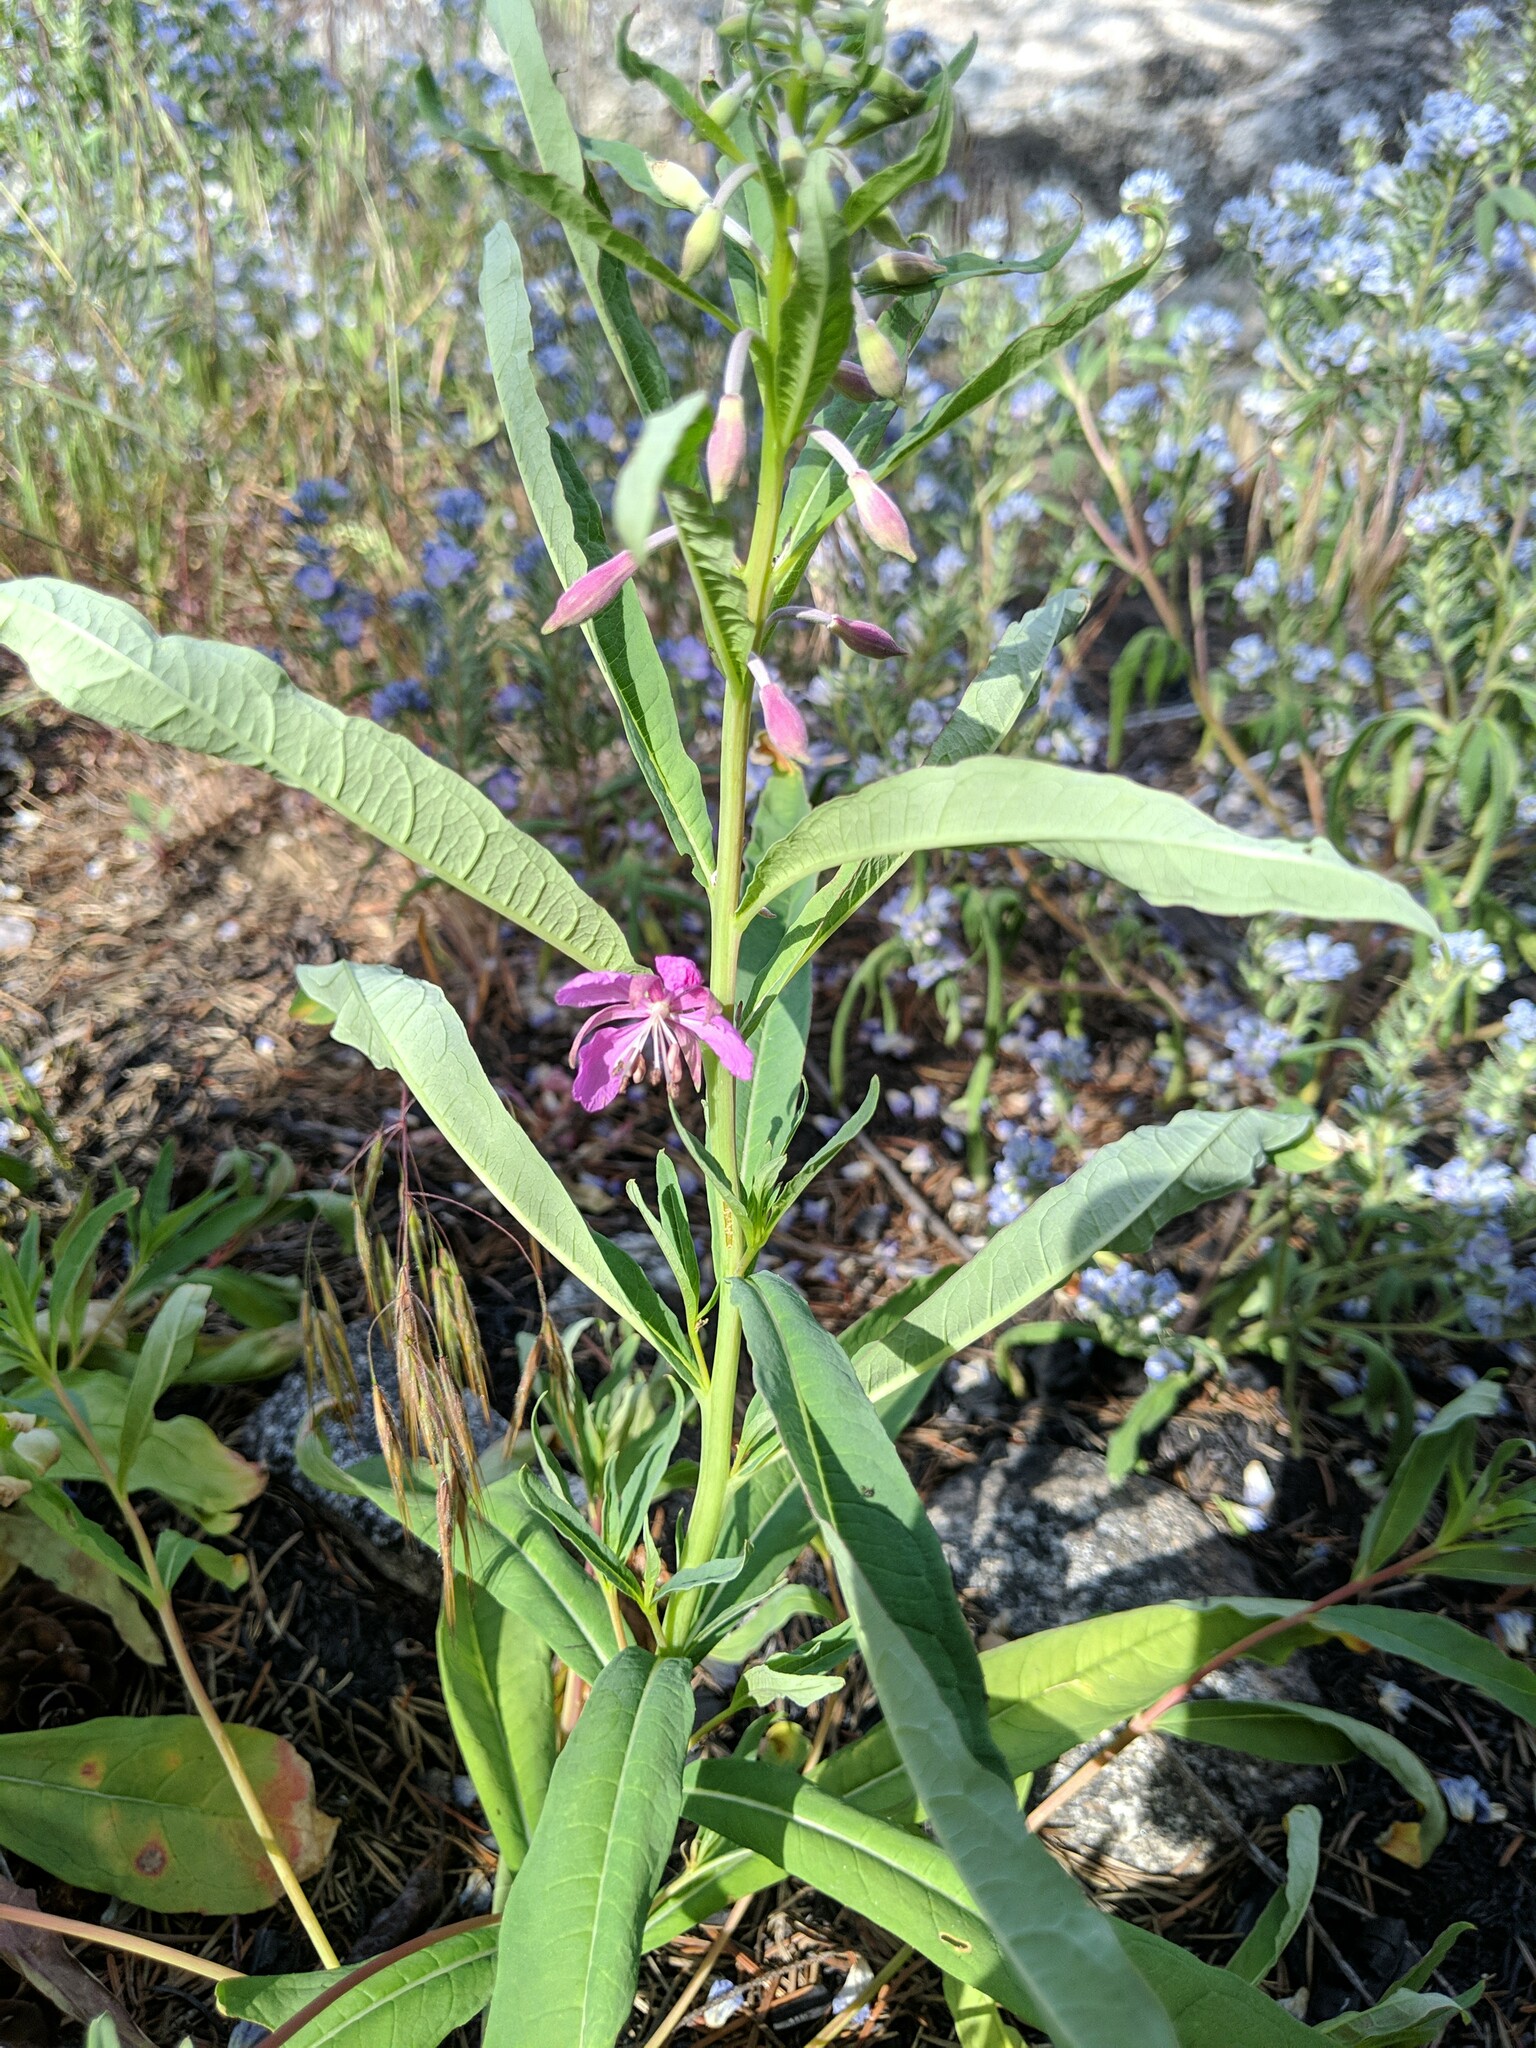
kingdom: Plantae
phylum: Tracheophyta
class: Magnoliopsida
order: Myrtales
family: Onagraceae
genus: Chamaenerion
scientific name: Chamaenerion angustifolium
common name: Fireweed
